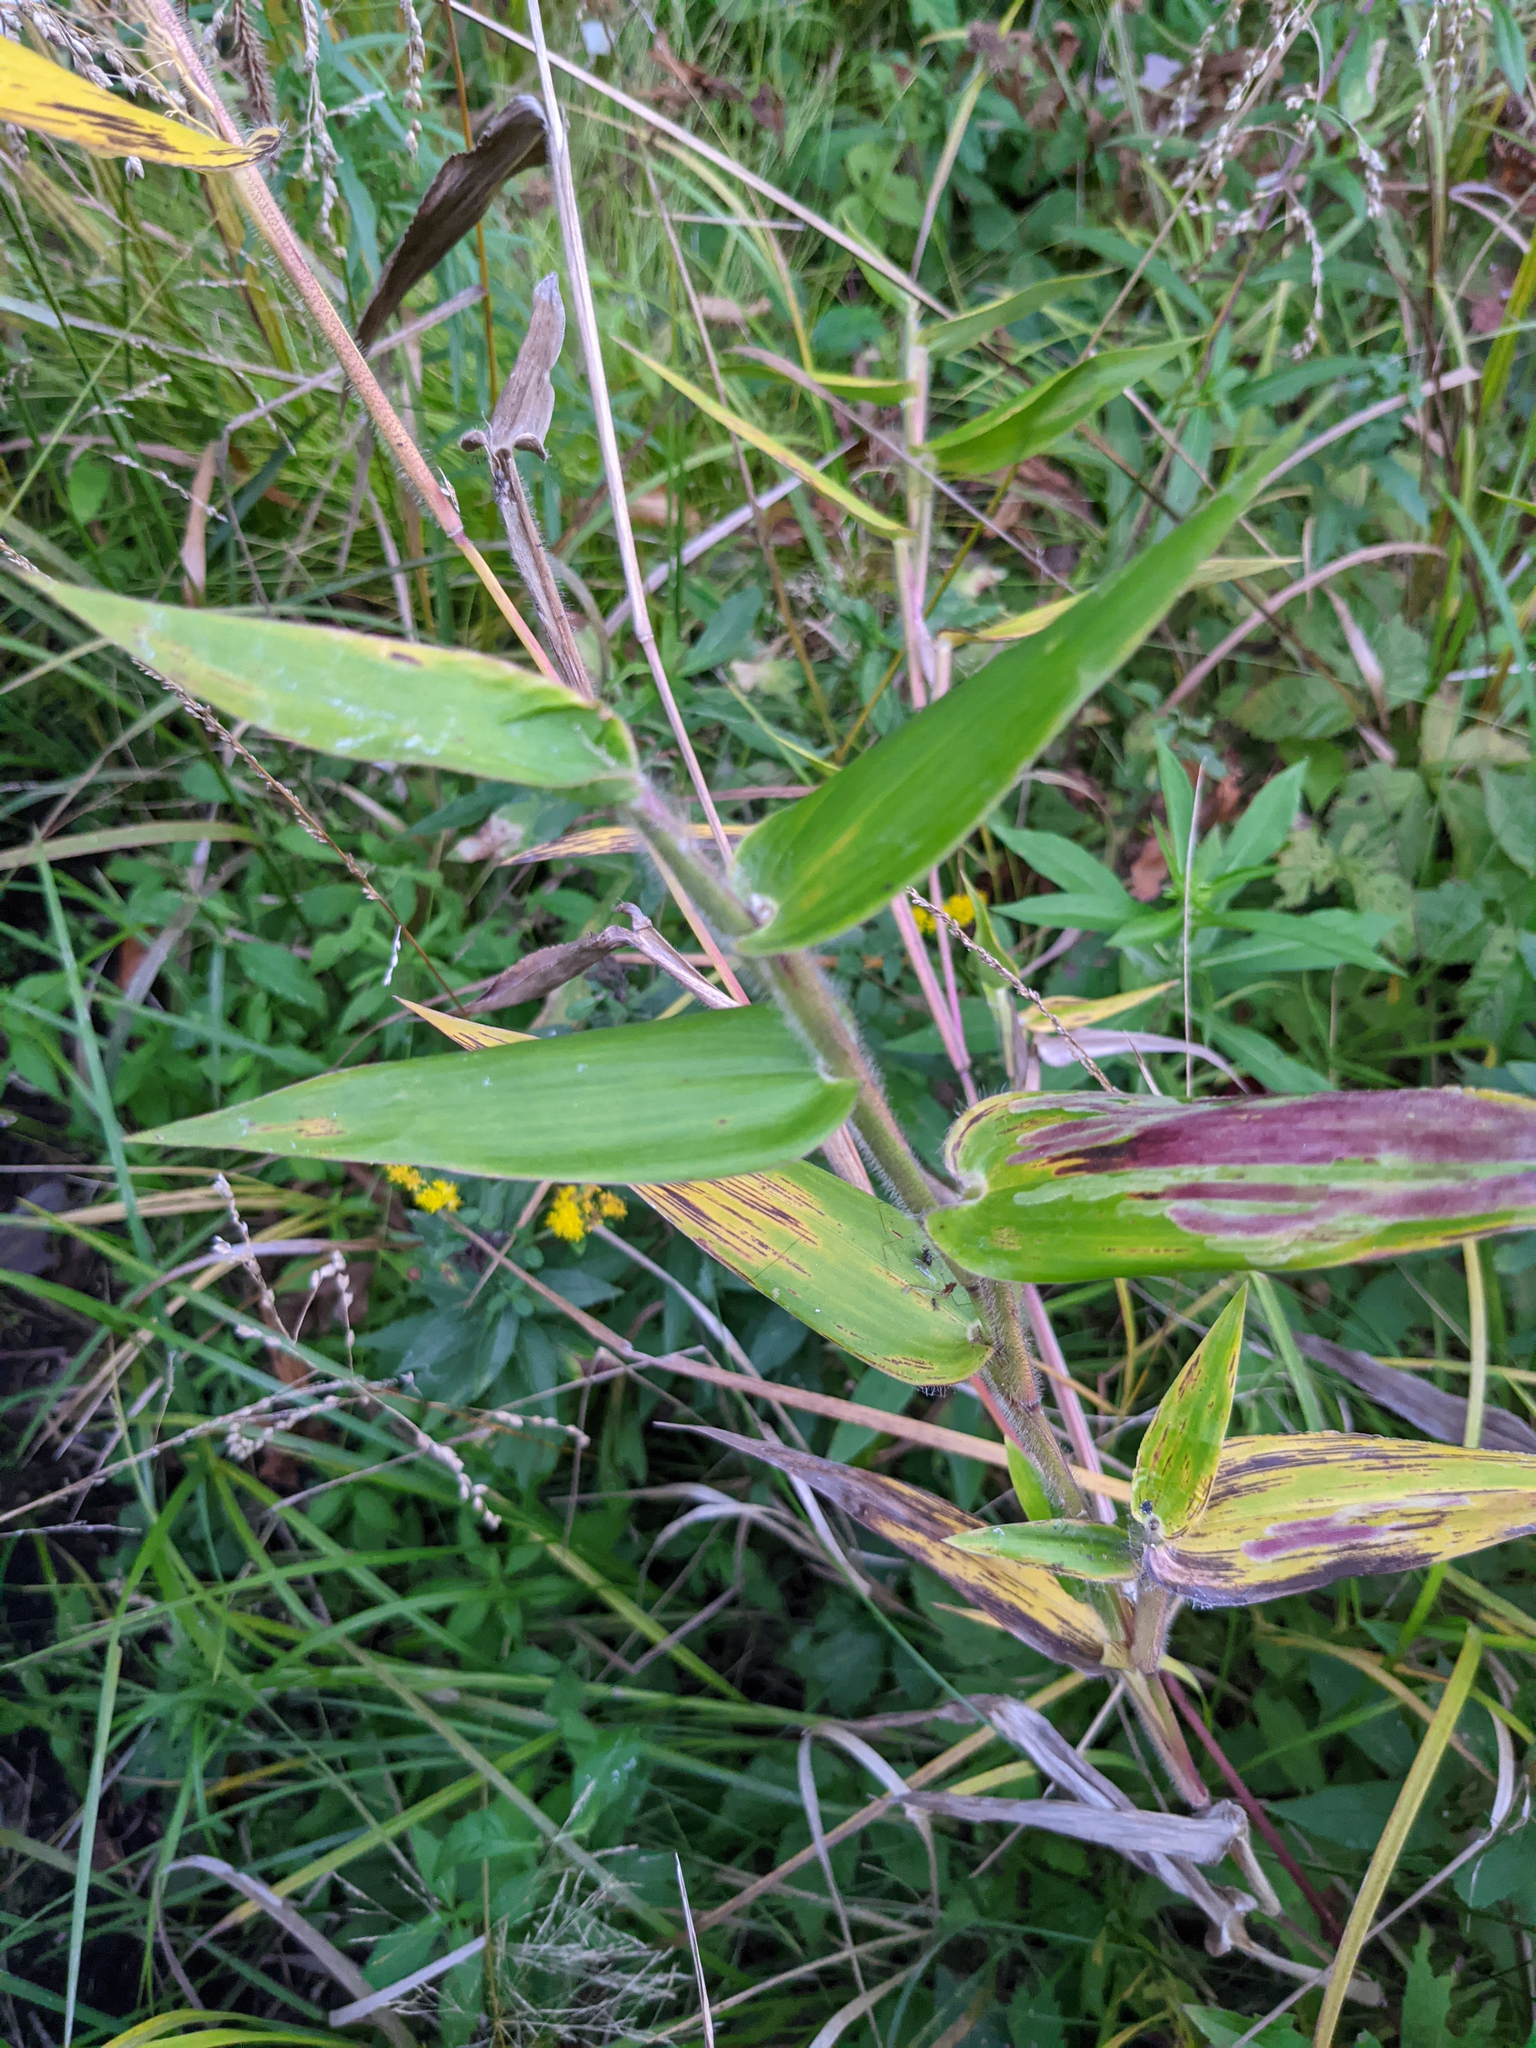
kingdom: Plantae
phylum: Tracheophyta
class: Liliopsida
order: Poales
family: Poaceae
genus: Dichanthelium
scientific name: Dichanthelium clandestinum
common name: Deer-tongue grass
